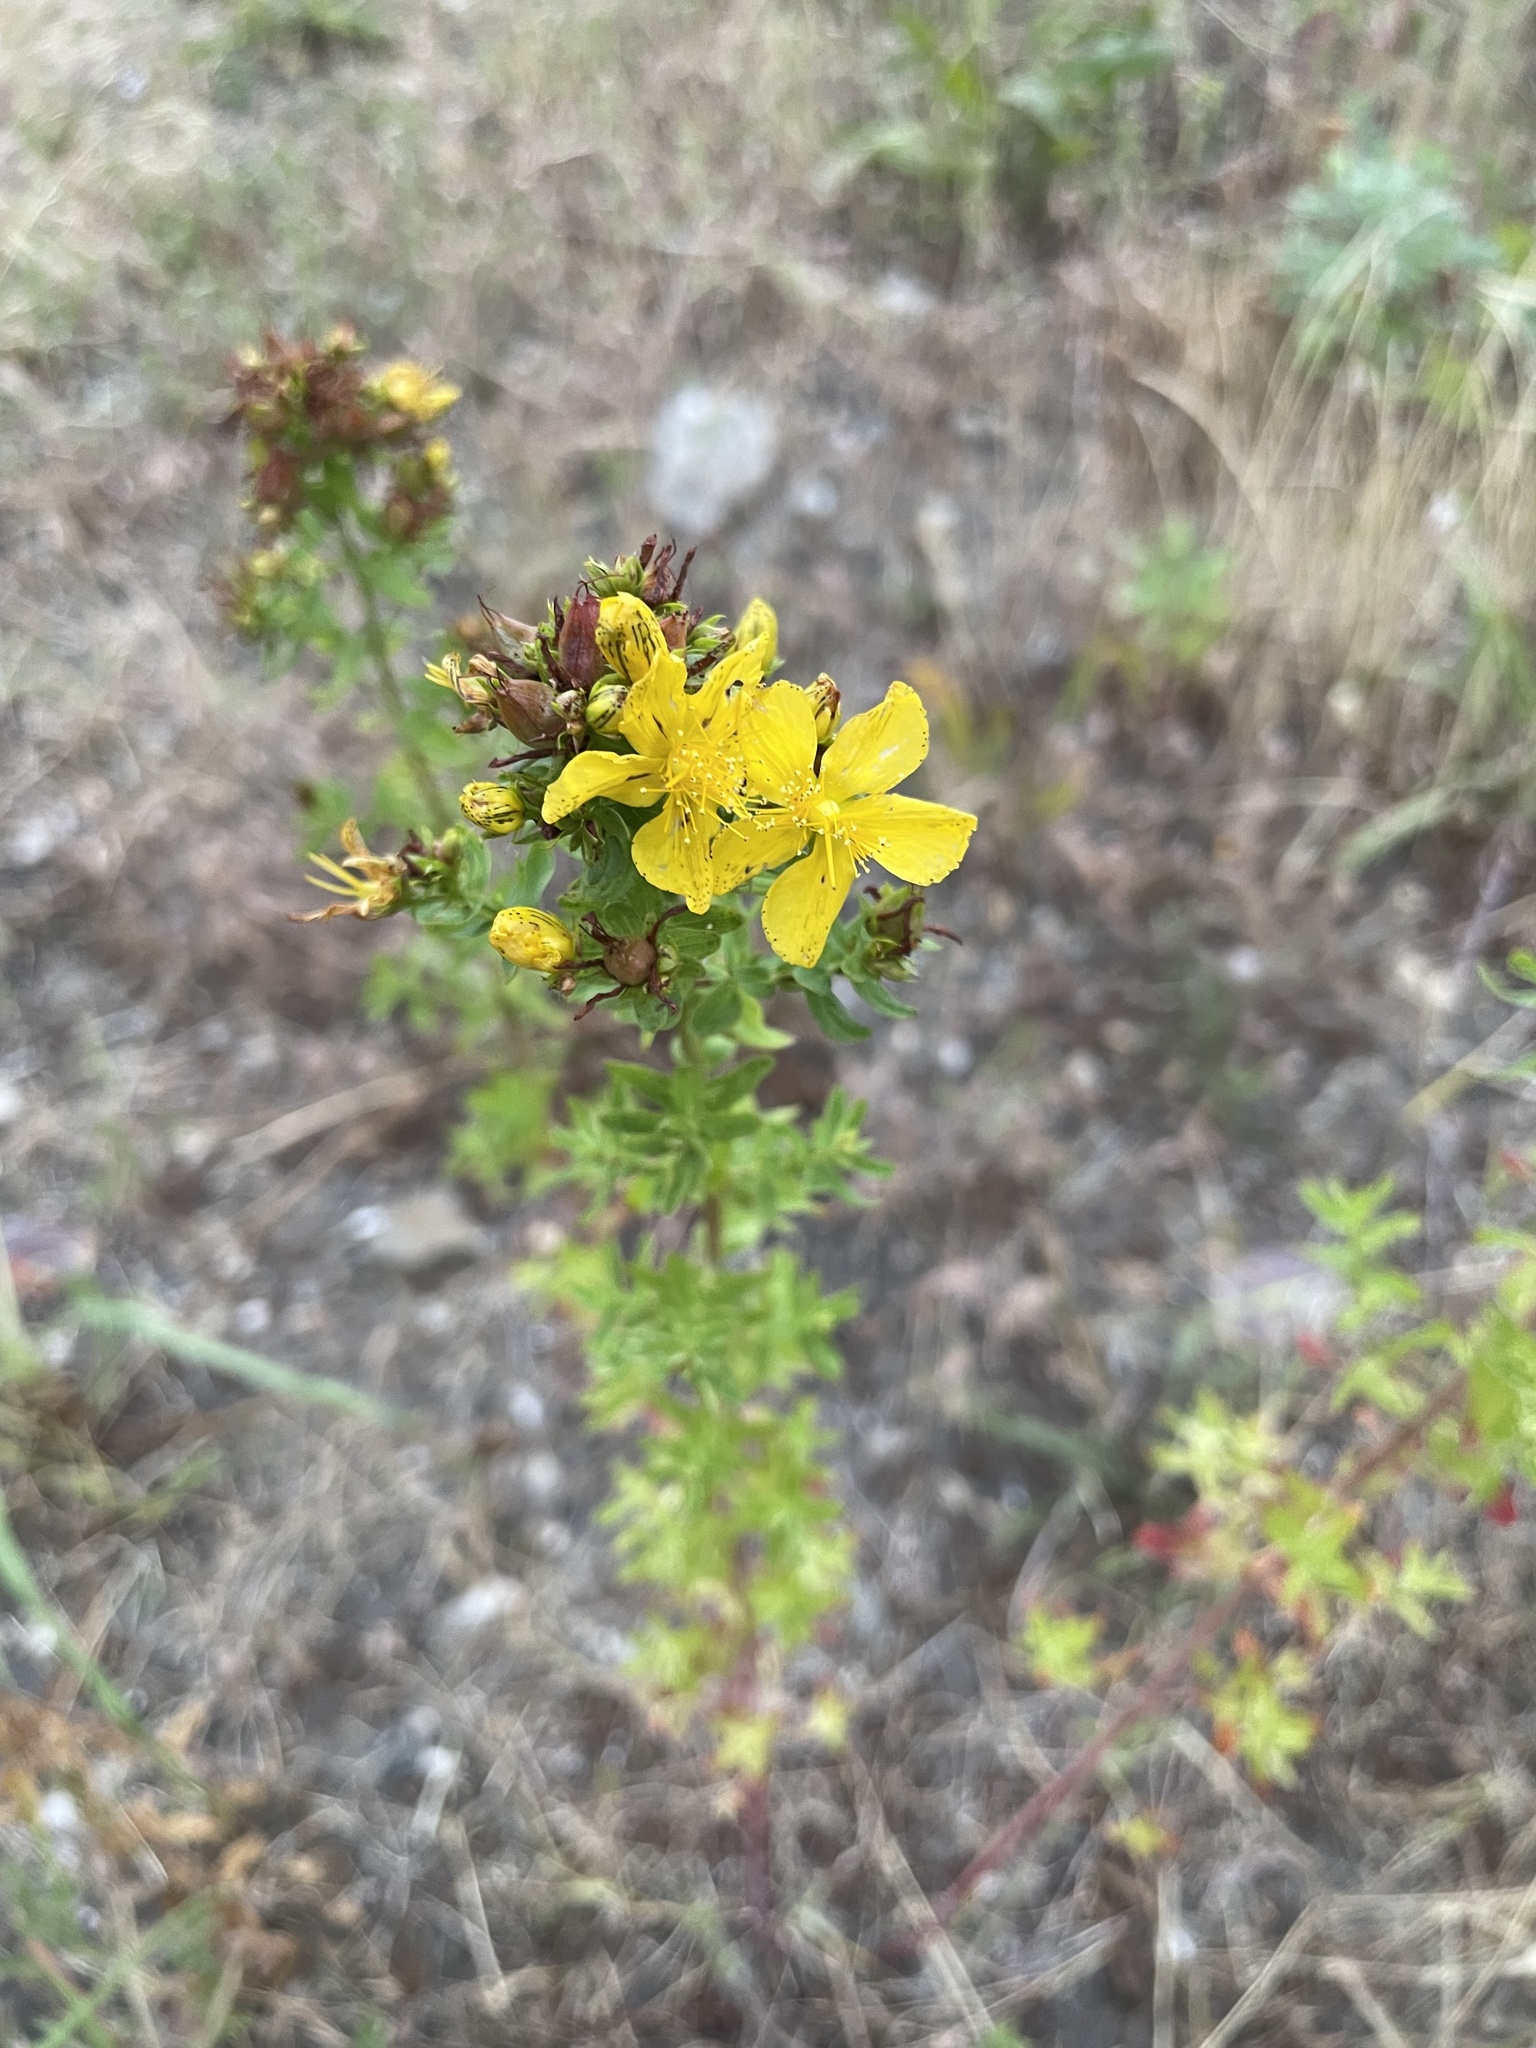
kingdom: Plantae
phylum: Tracheophyta
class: Magnoliopsida
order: Malpighiales
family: Hypericaceae
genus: Hypericum
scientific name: Hypericum perforatum
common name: Common st. johnswort
